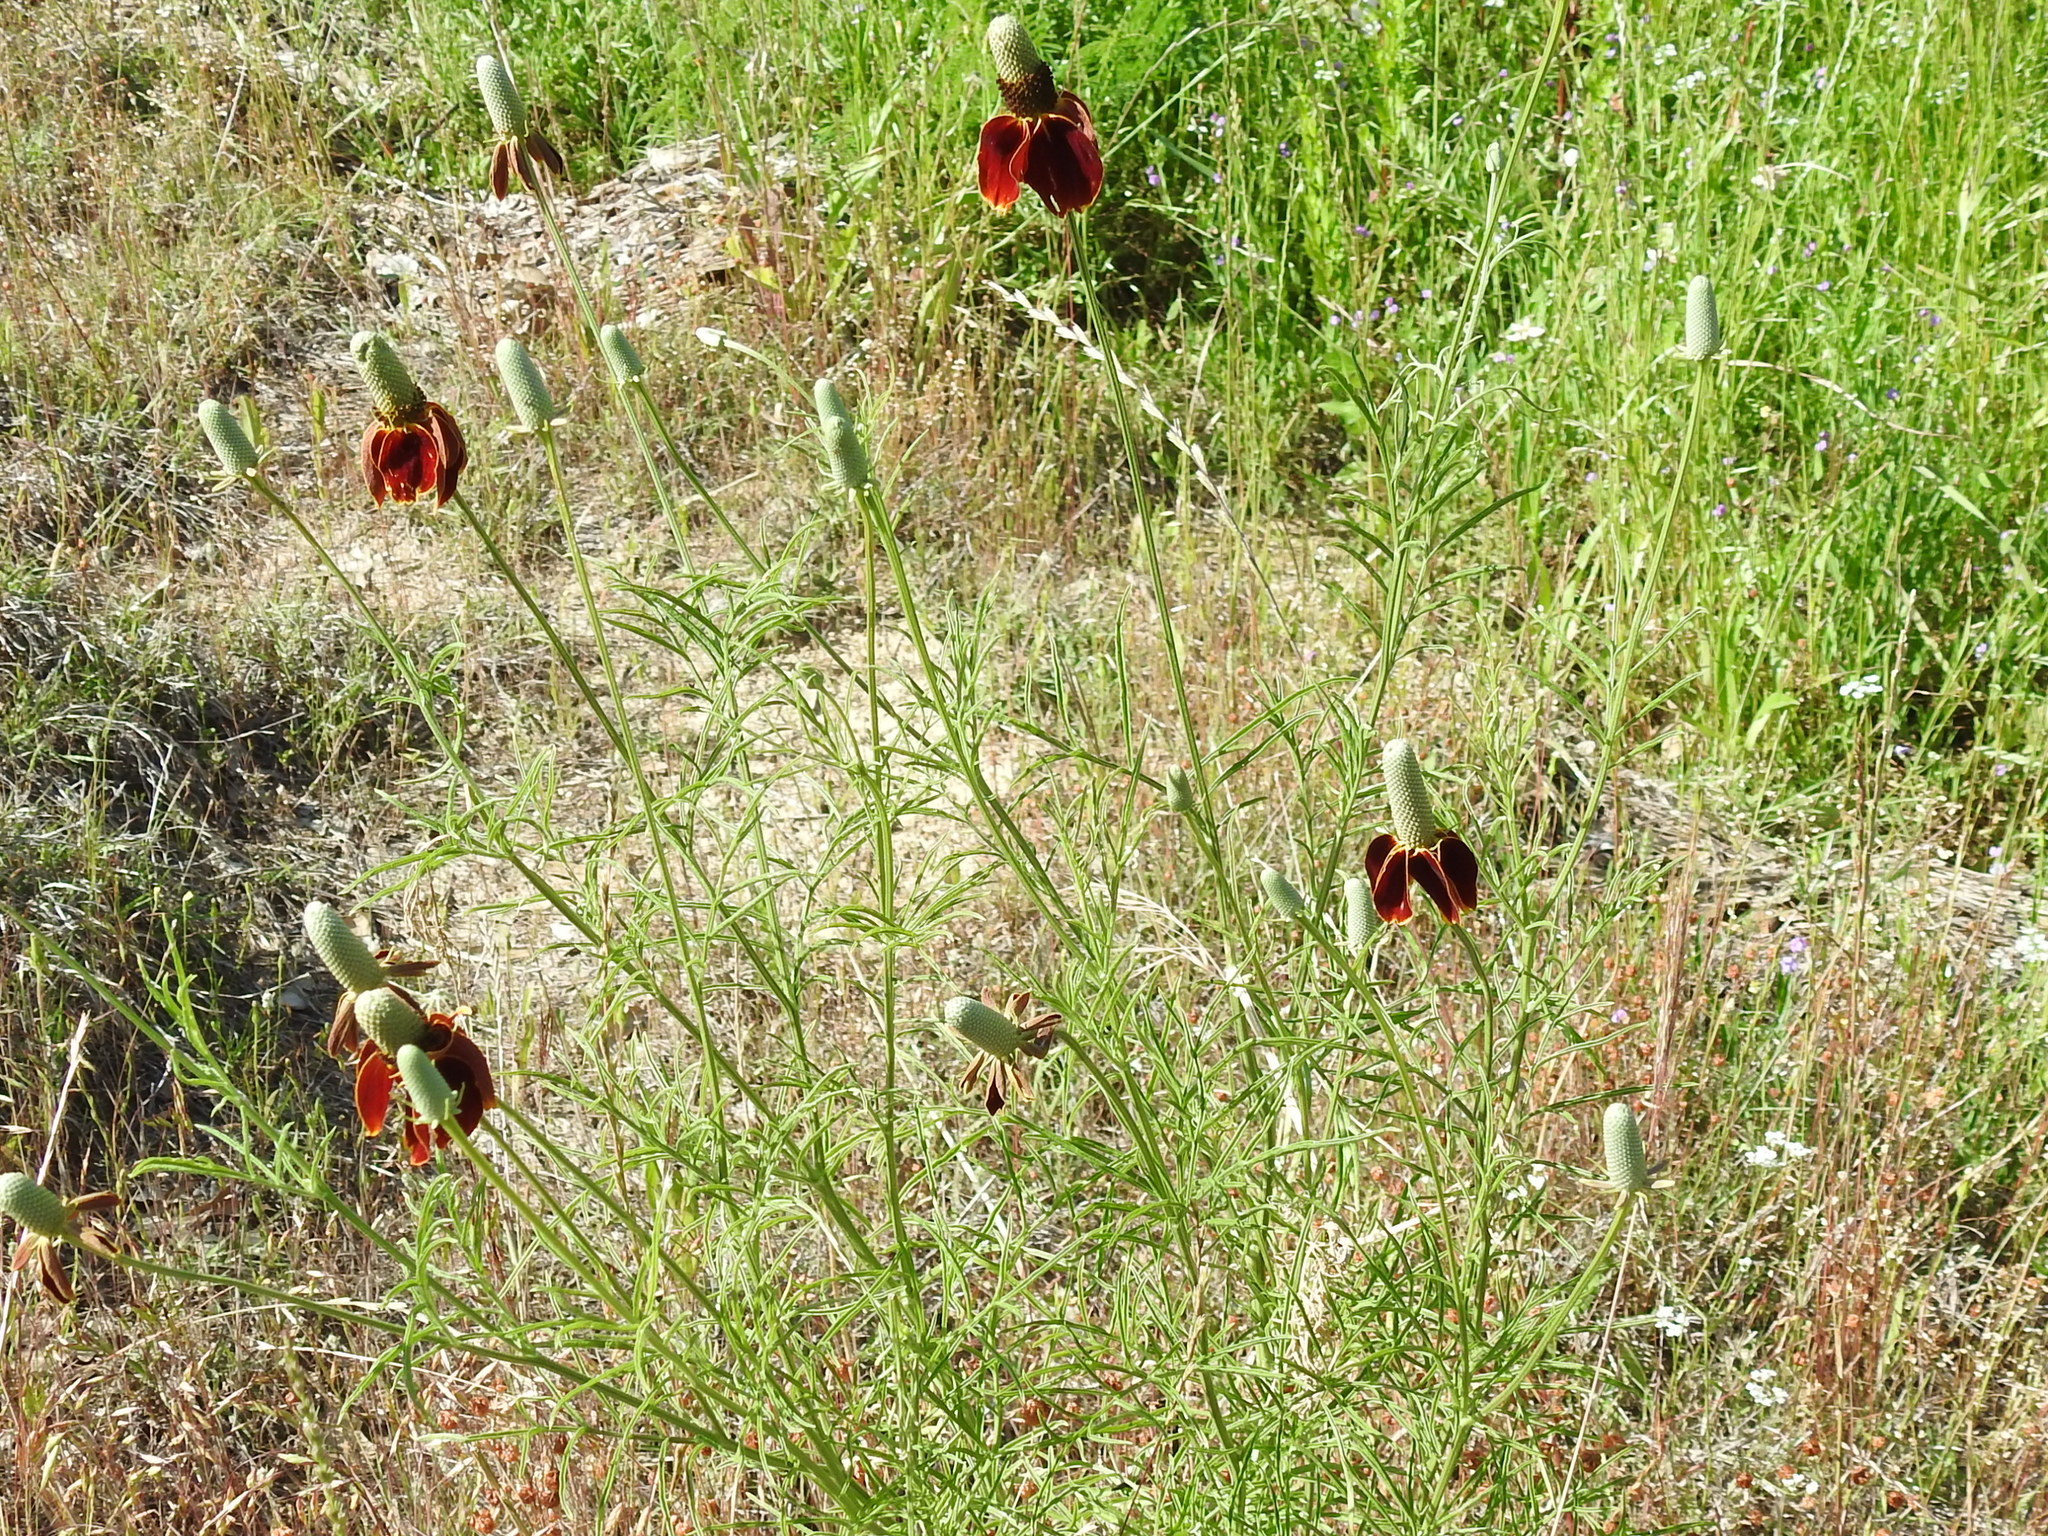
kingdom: Plantae
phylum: Tracheophyta
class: Magnoliopsida
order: Asterales
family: Asteraceae
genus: Ratibida
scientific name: Ratibida columnifera
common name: Prairie coneflower
